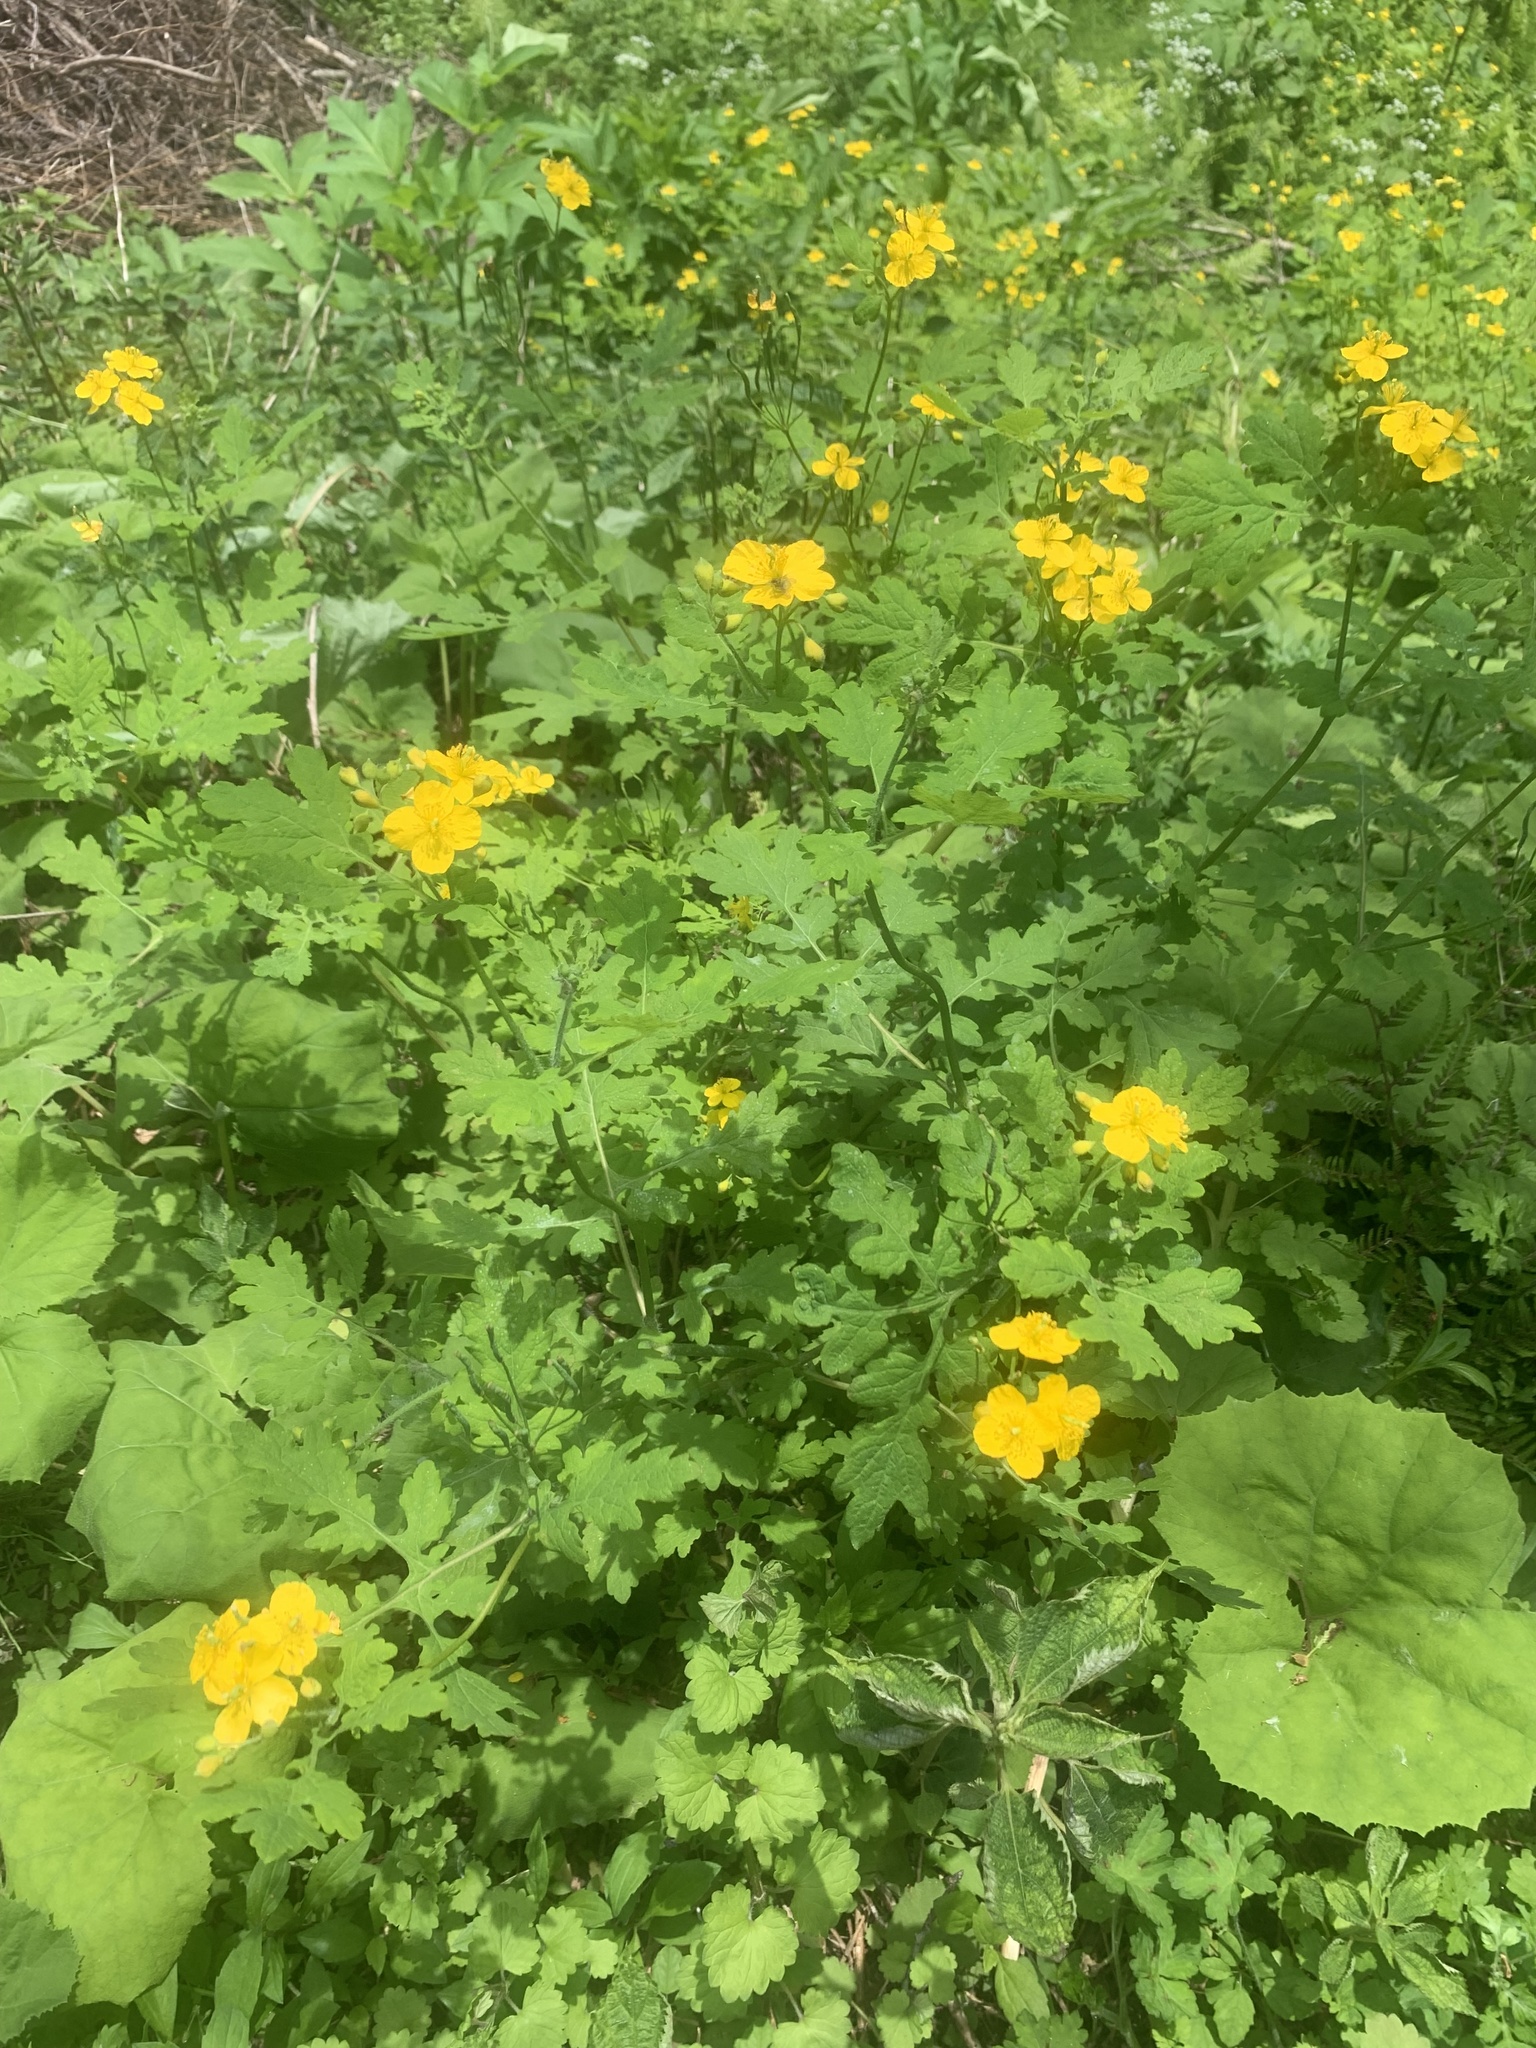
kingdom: Plantae
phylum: Tracheophyta
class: Magnoliopsida
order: Ranunculales
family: Papaveraceae
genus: Chelidonium
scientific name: Chelidonium majus
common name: Greater celandine
